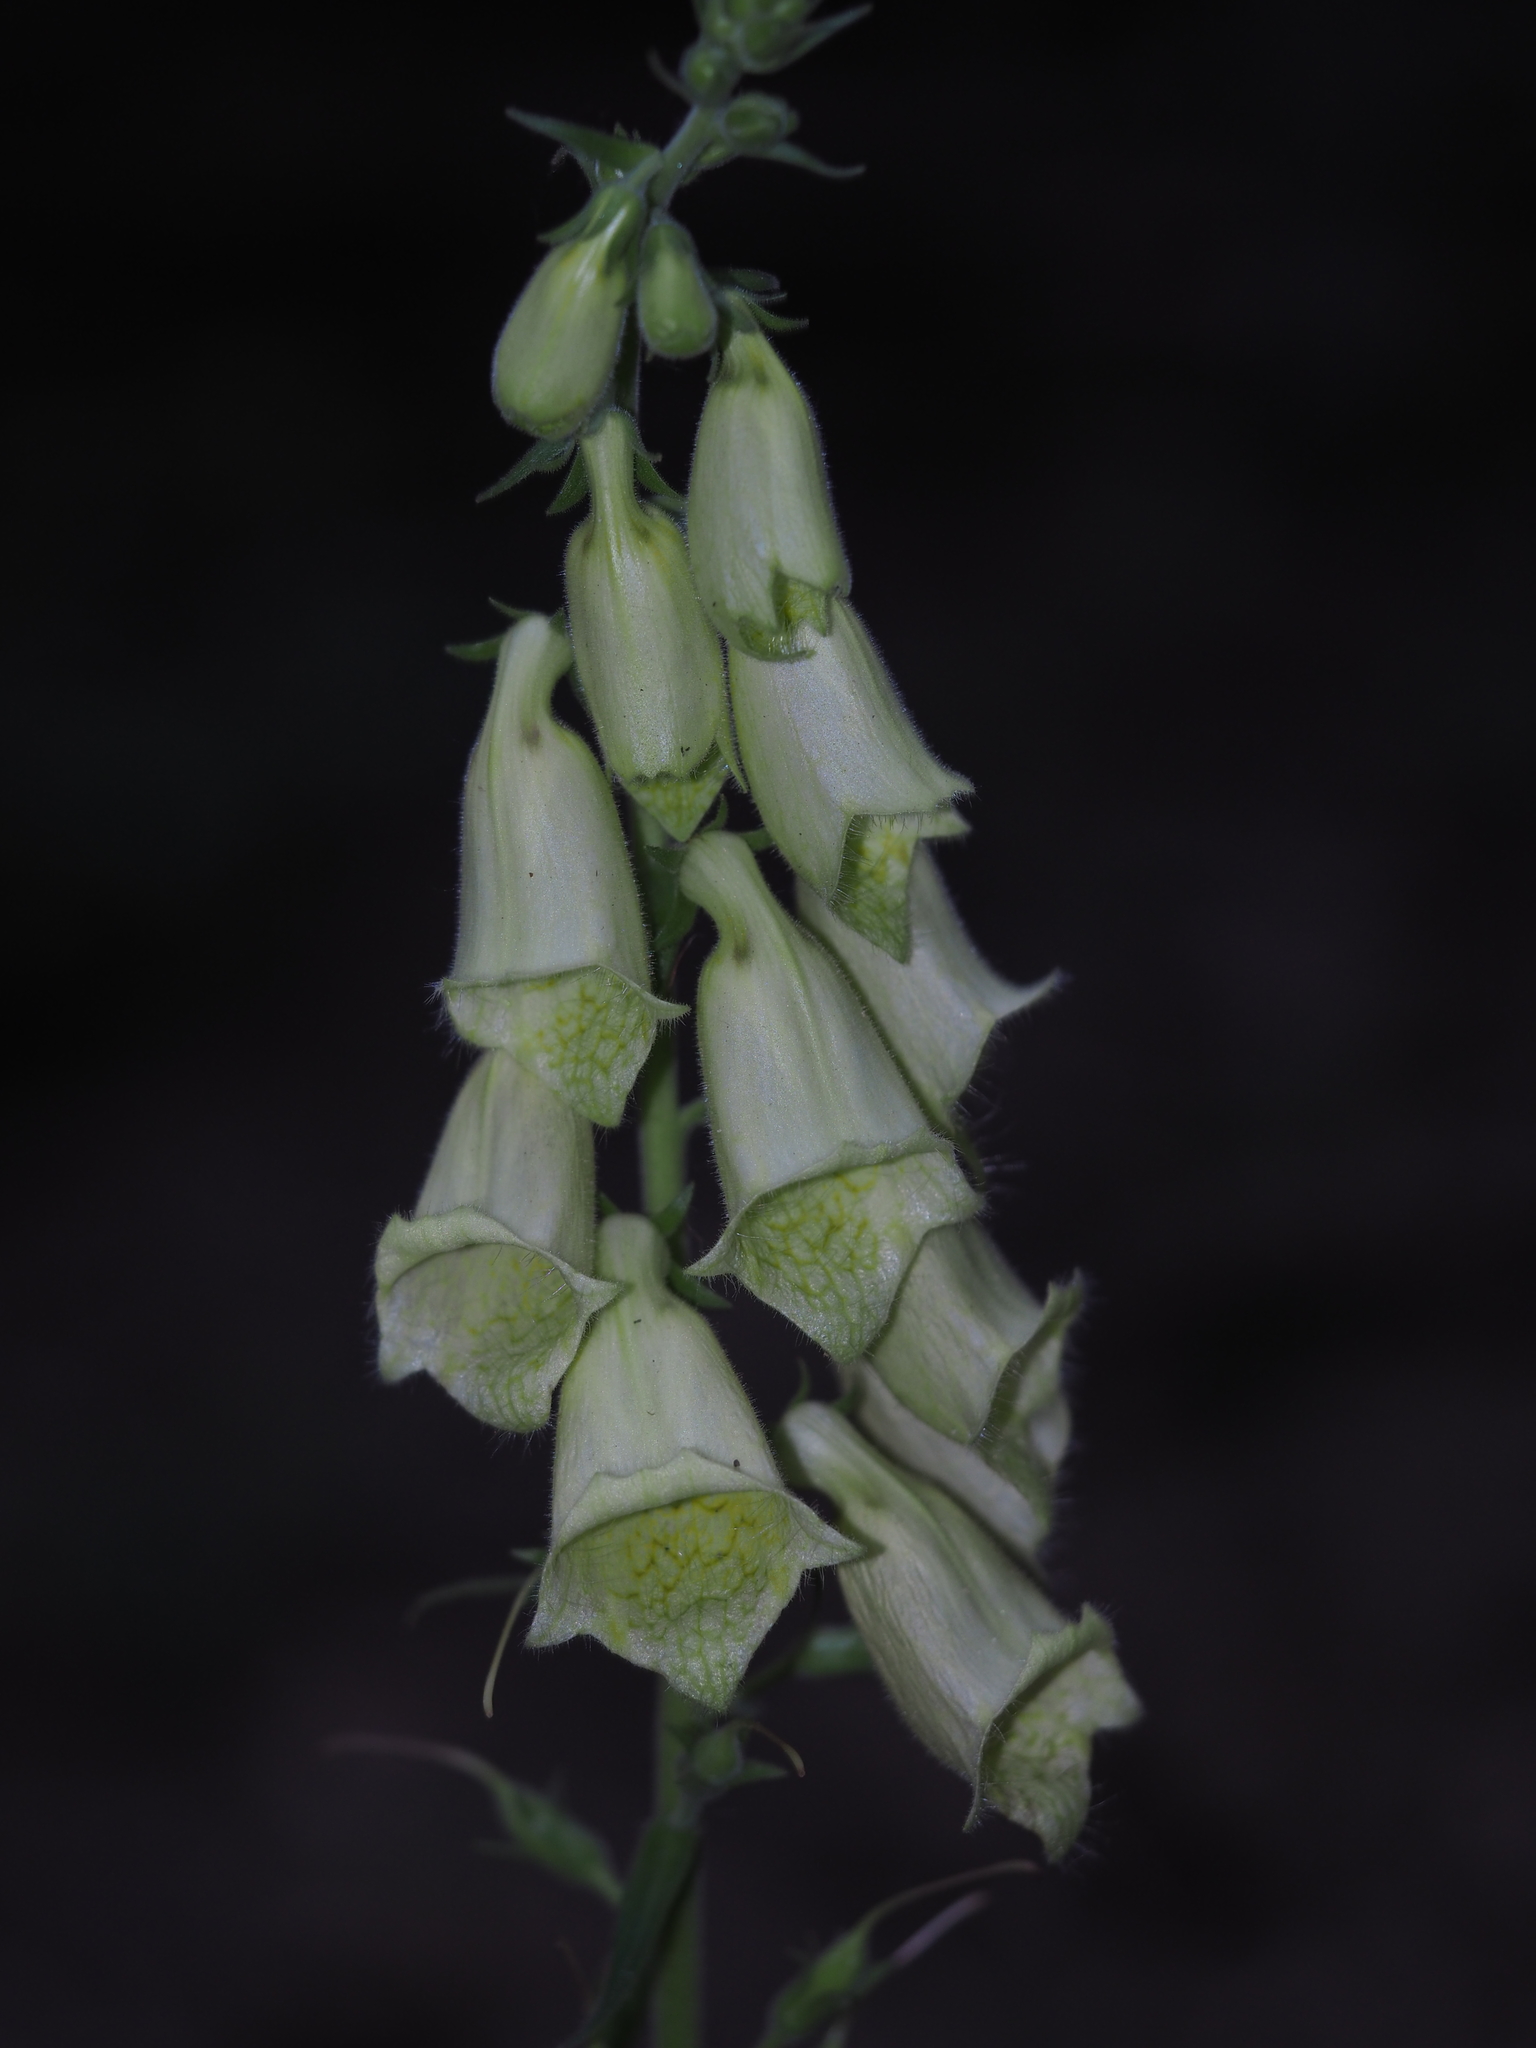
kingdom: Plantae
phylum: Tracheophyta
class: Magnoliopsida
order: Lamiales
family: Plantaginaceae
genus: Digitalis
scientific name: Digitalis grandiflora
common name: Yellow foxglove
